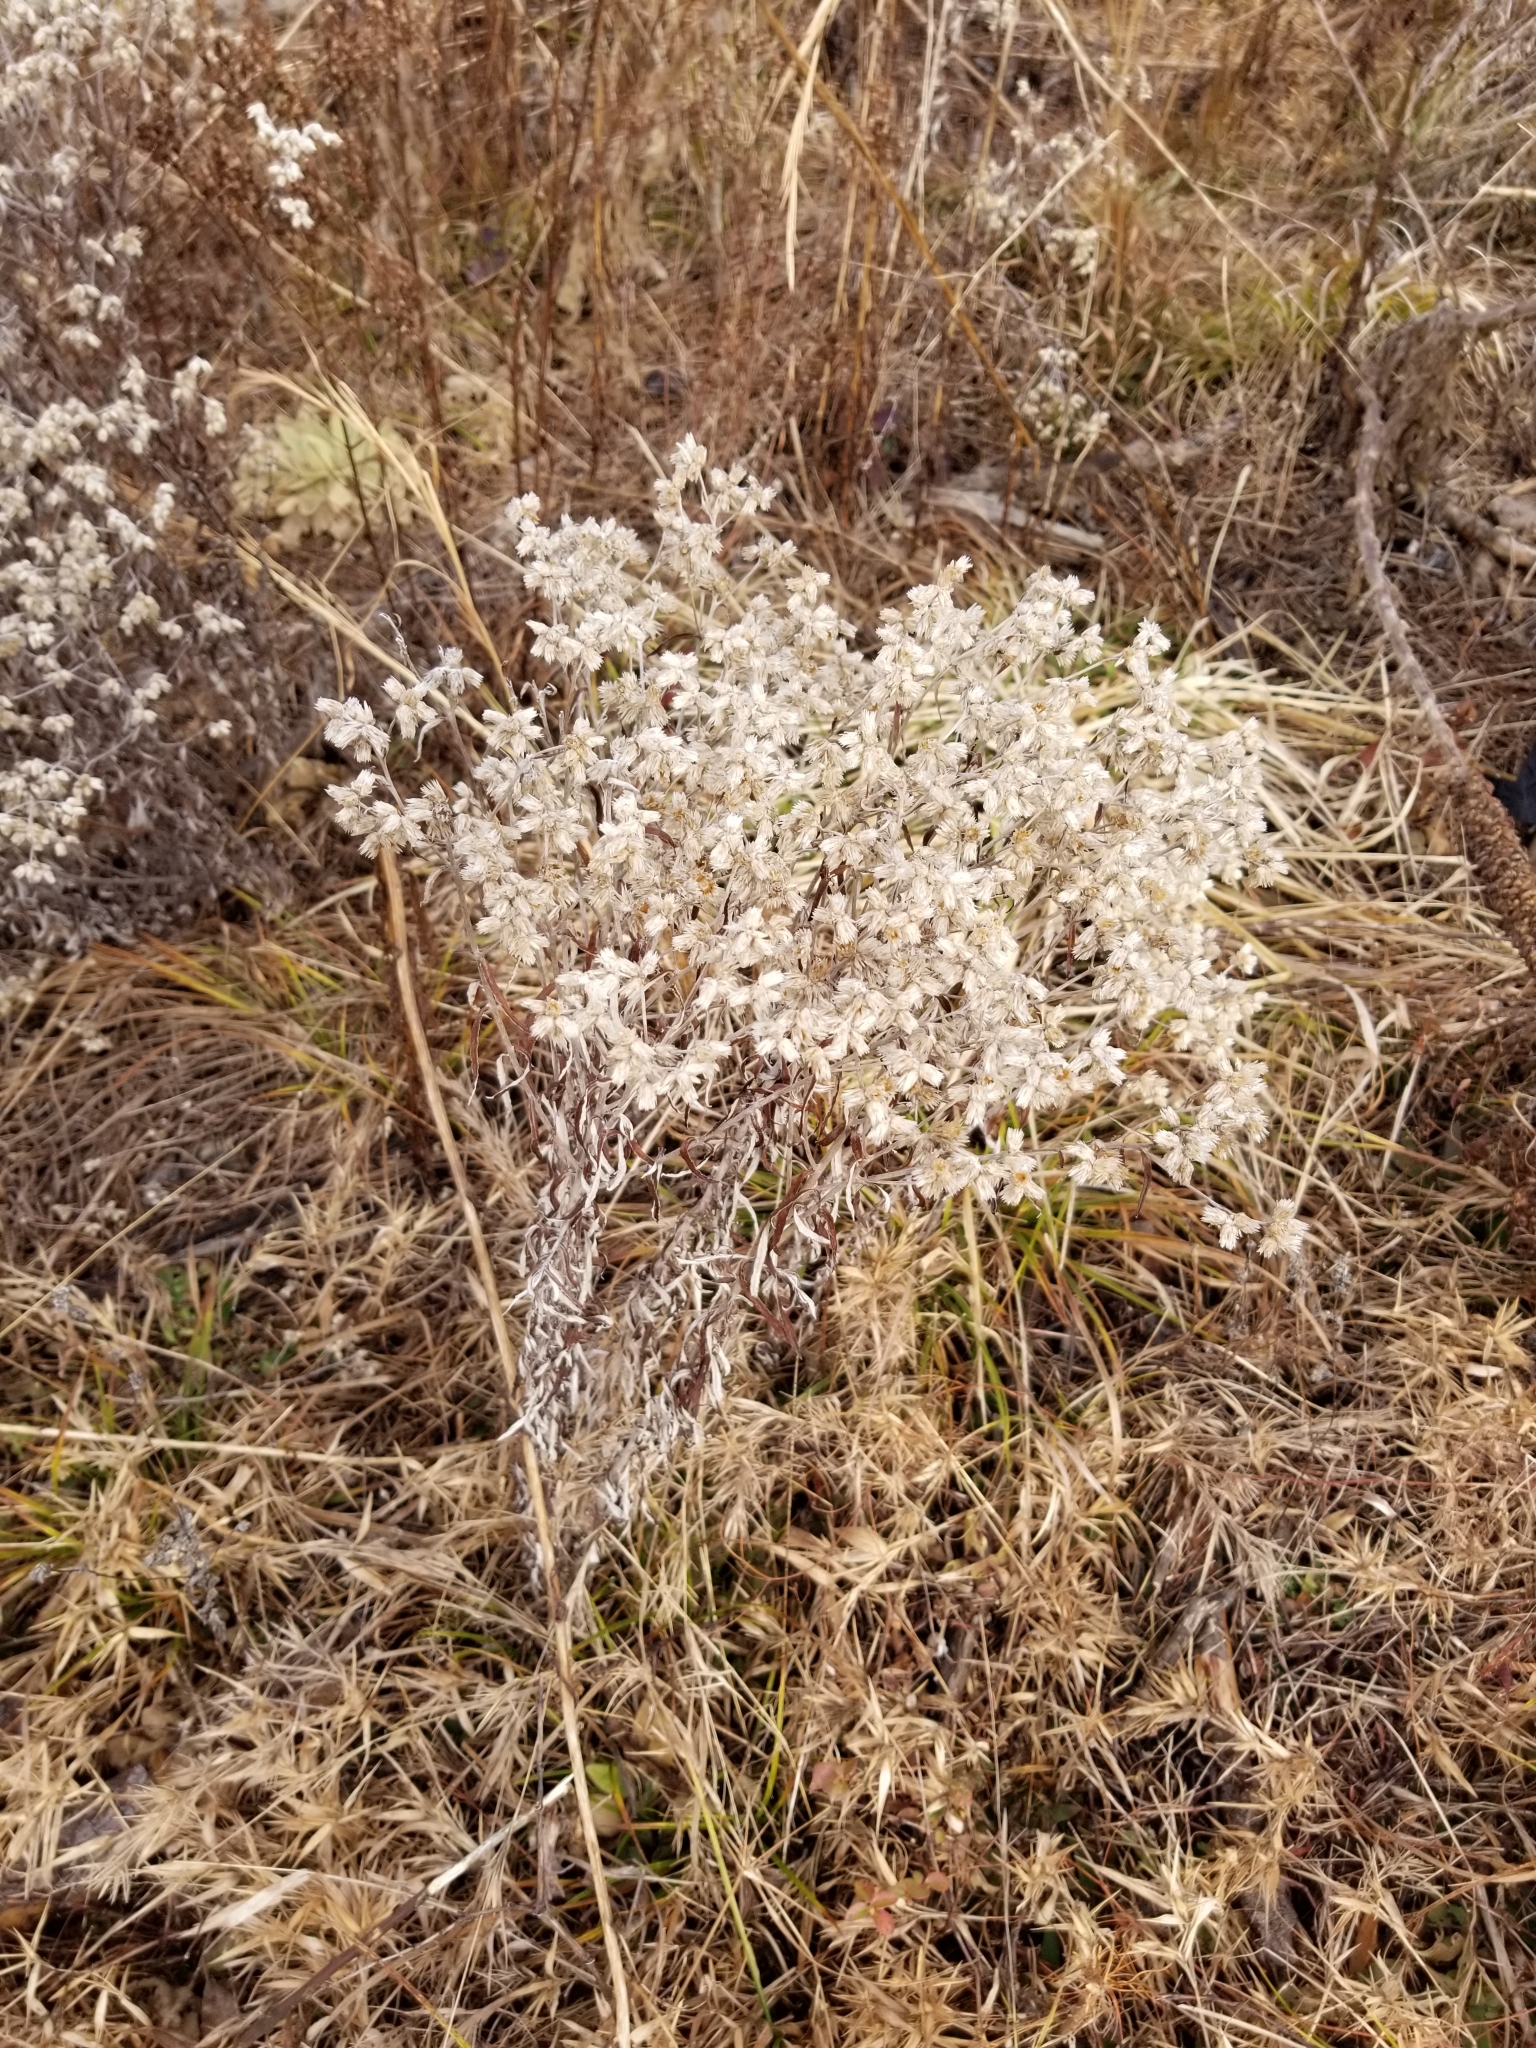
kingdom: Plantae
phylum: Tracheophyta
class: Magnoliopsida
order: Asterales
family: Asteraceae
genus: Pseudognaphalium
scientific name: Pseudognaphalium obtusifolium
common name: Eastern rabbit-tobacco
